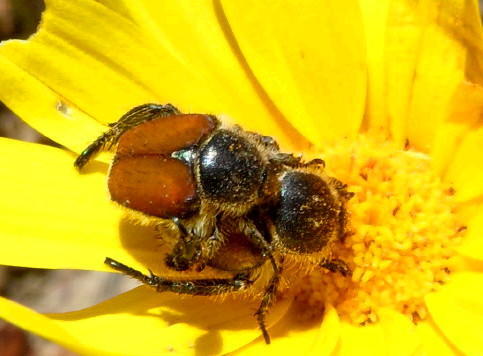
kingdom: Plantae
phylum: Tracheophyta
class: Magnoliopsida
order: Asterales
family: Asteraceae
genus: Osteospermum
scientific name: Osteospermum junceum
